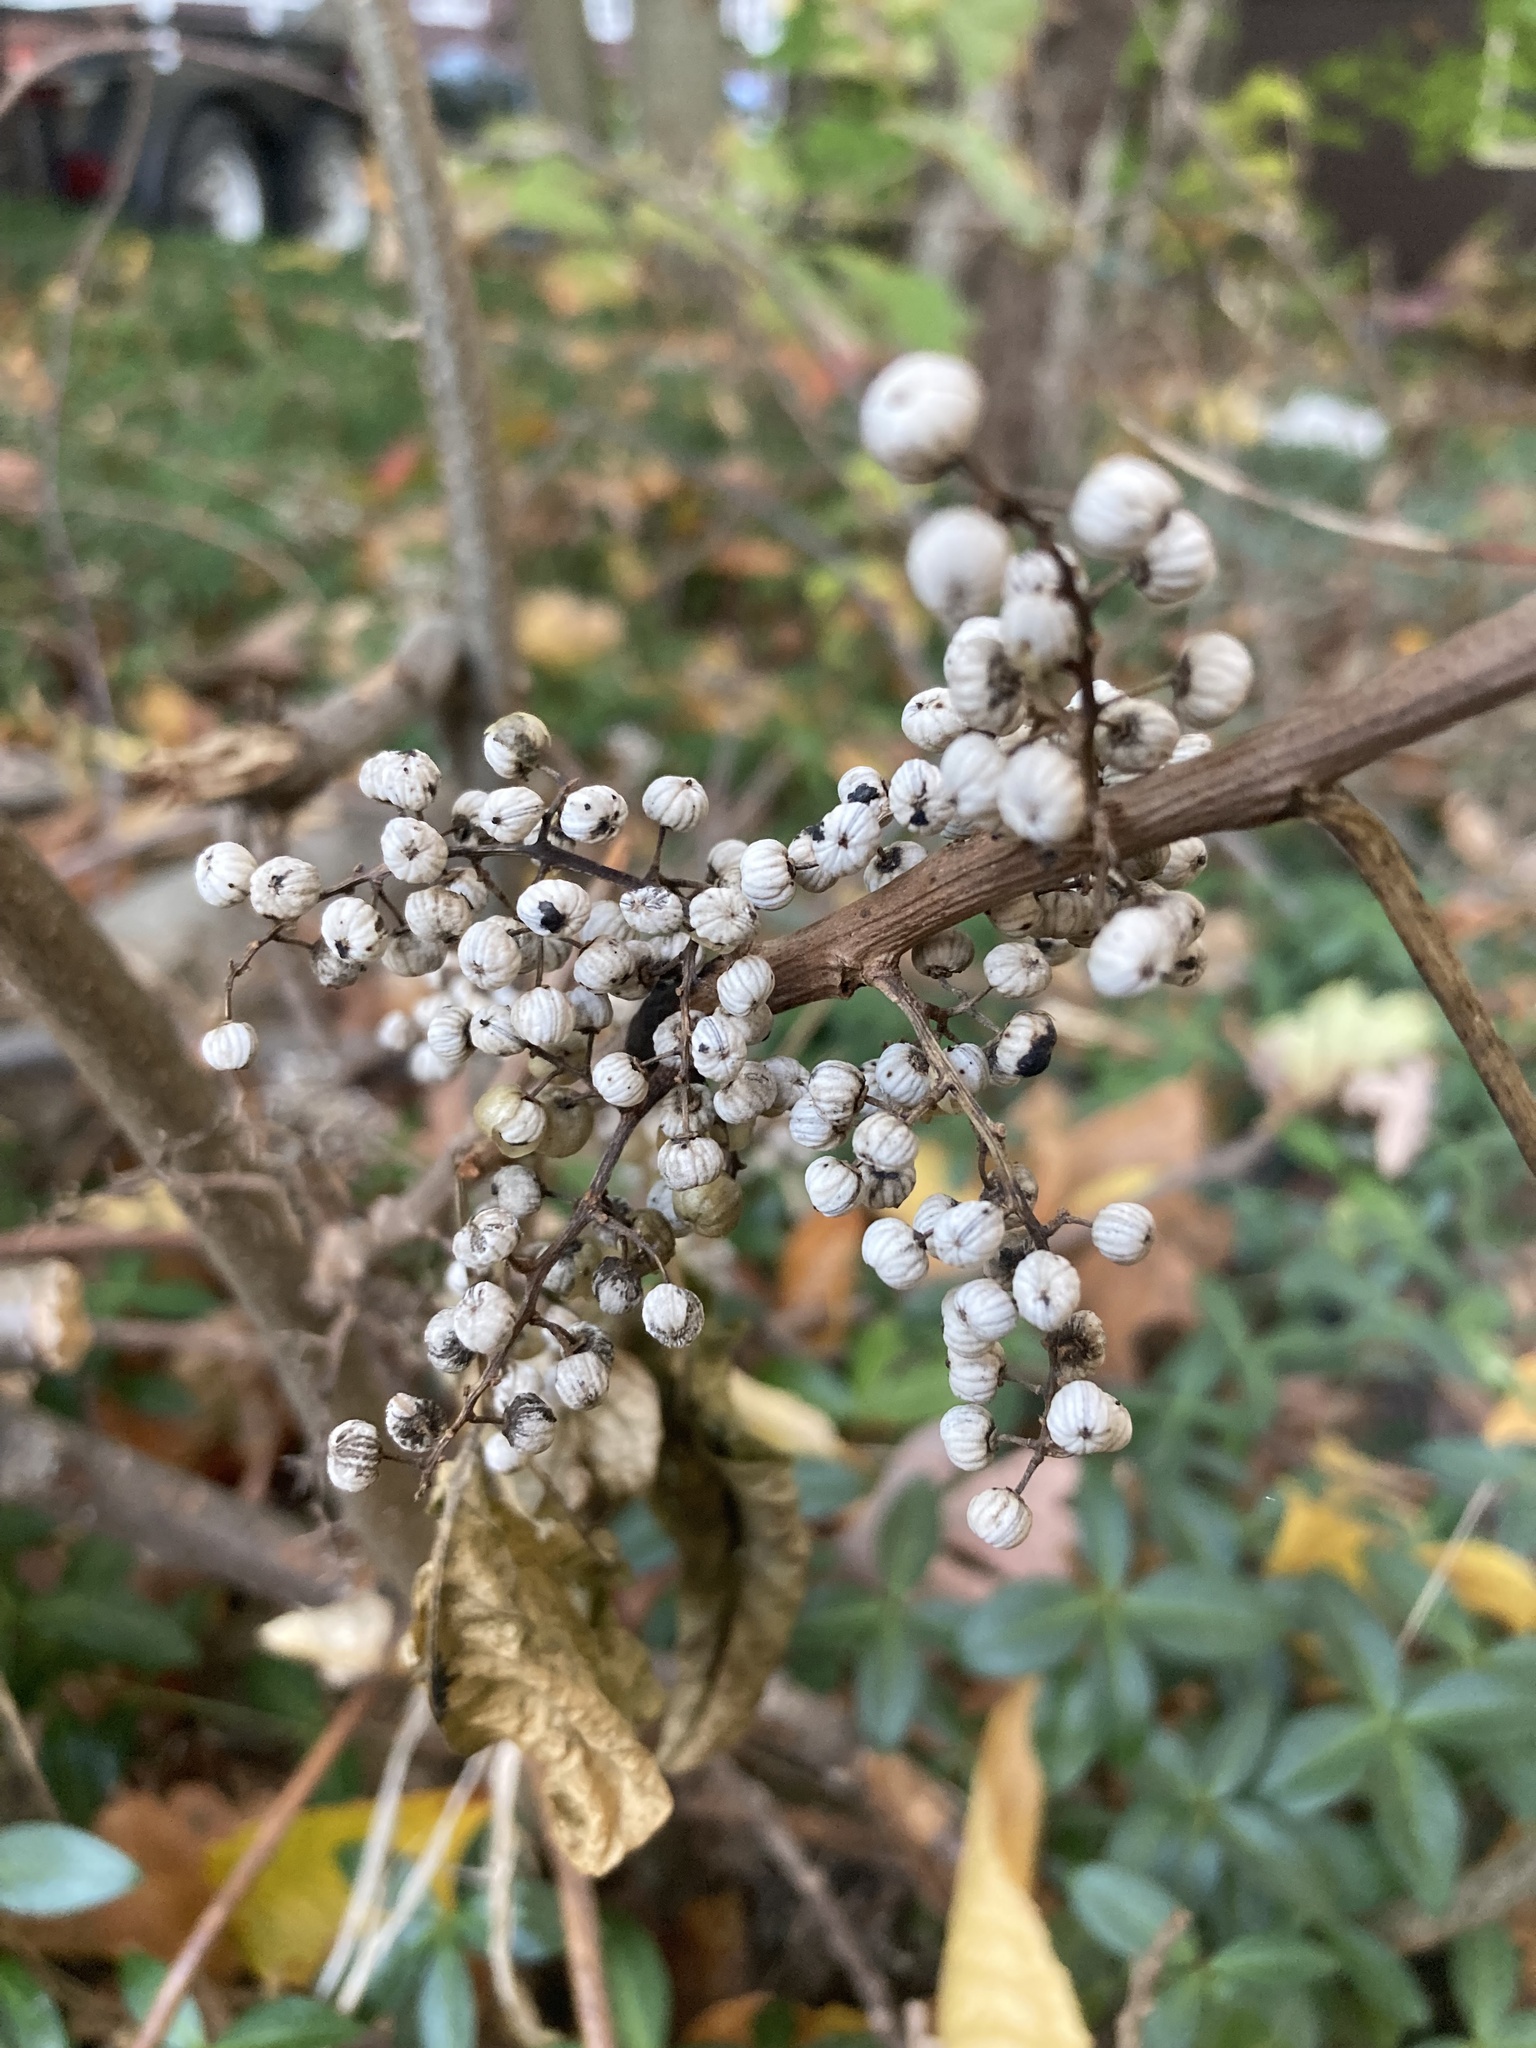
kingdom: Plantae
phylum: Tracheophyta
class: Magnoliopsida
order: Sapindales
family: Anacardiaceae
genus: Toxicodendron
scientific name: Toxicodendron radicans
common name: Poison ivy
